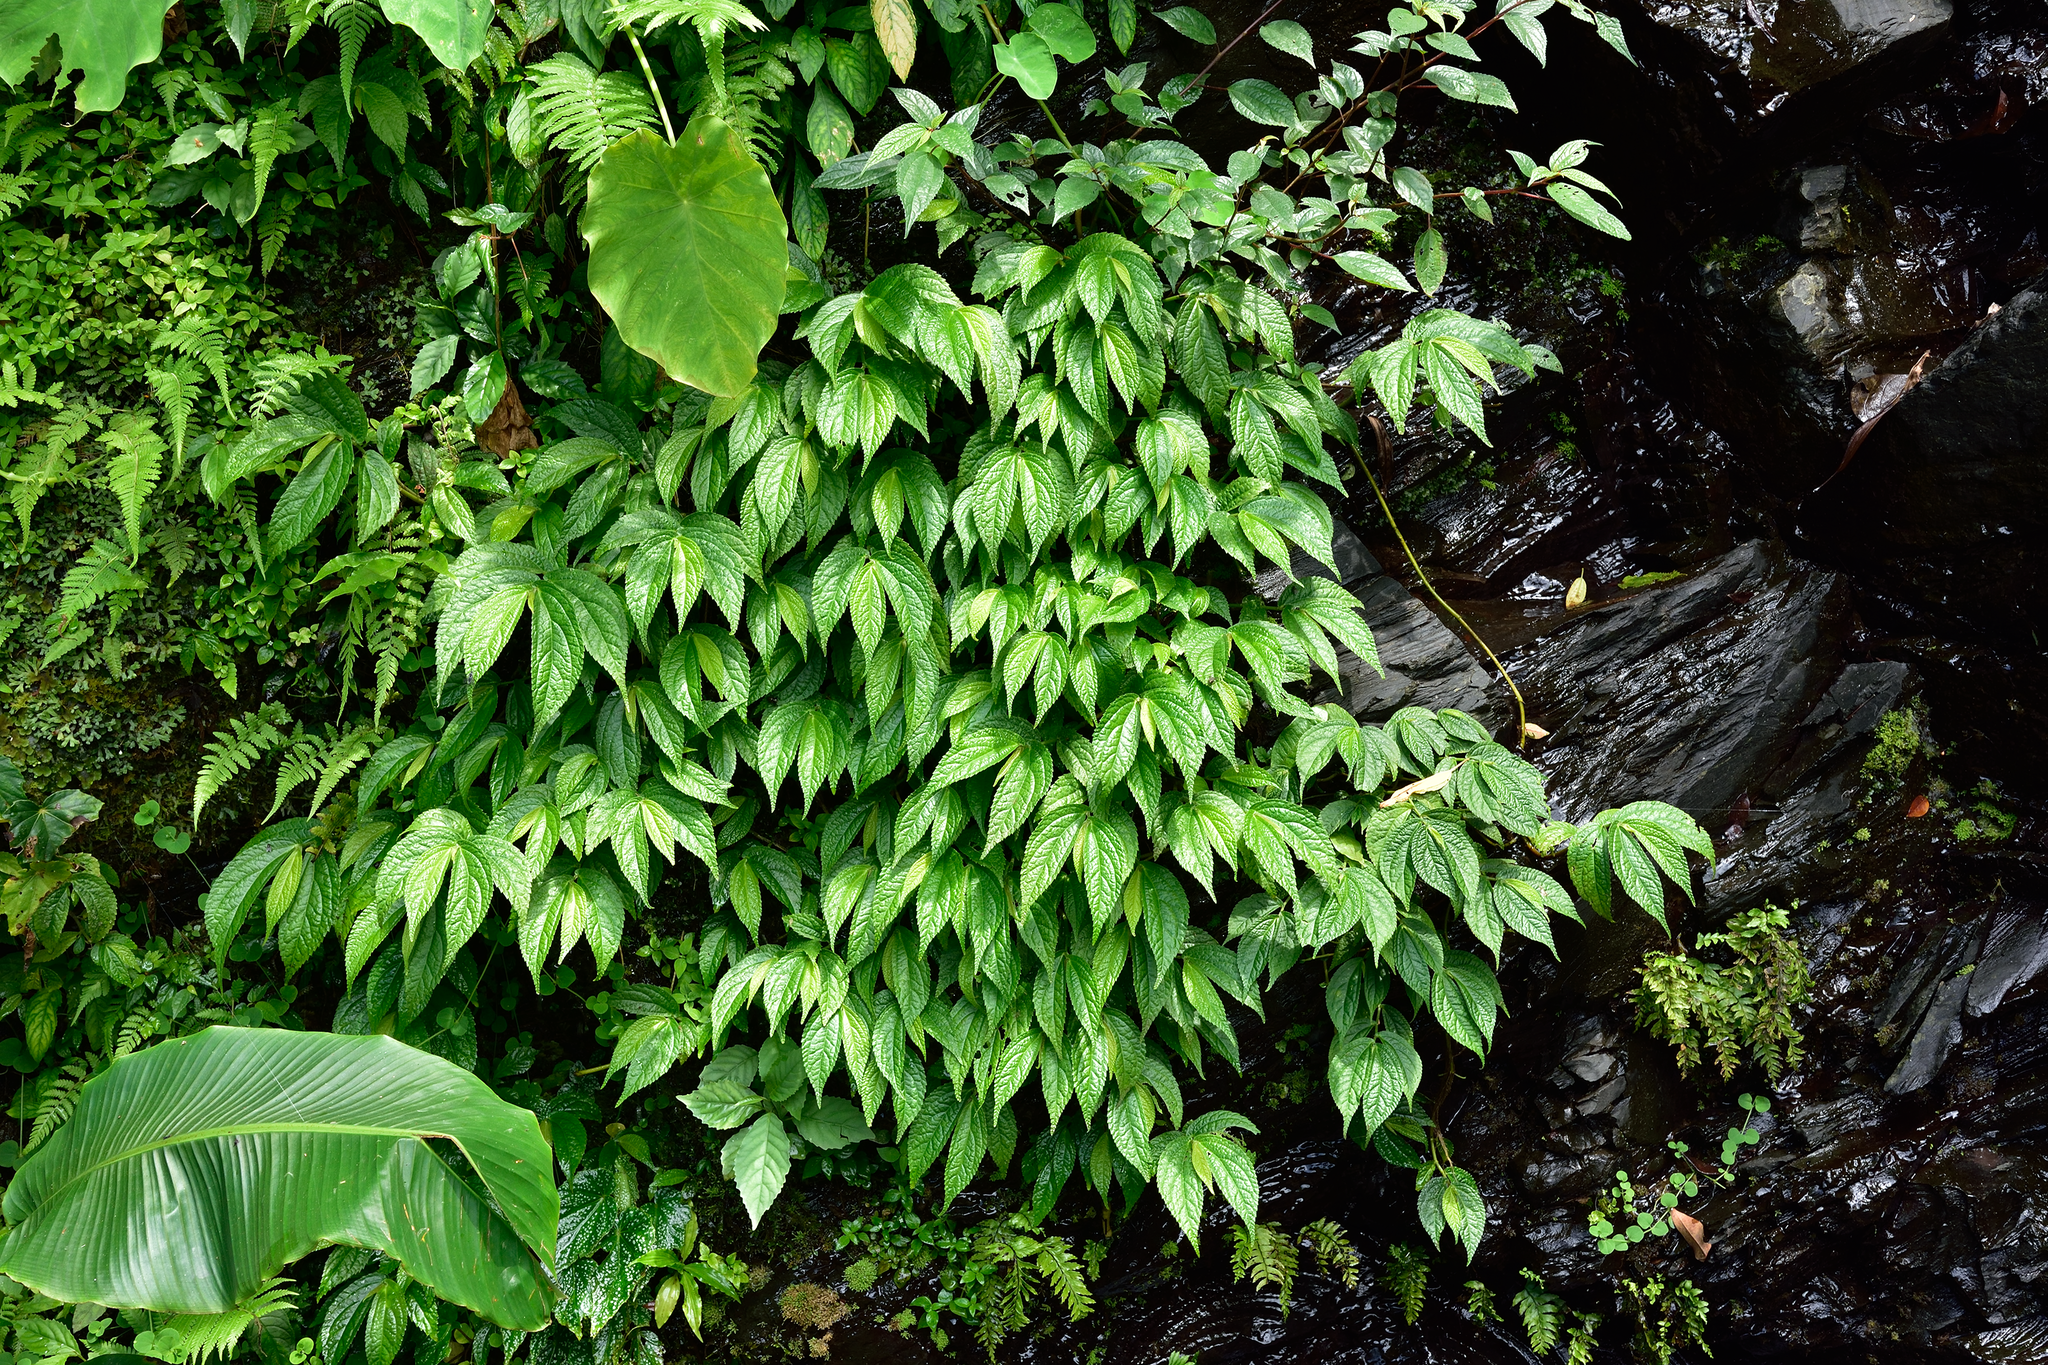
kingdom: Plantae
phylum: Tracheophyta
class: Magnoliopsida
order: Rosales
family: Urticaceae
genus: Elatostema
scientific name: Elatostema platyphyllum
